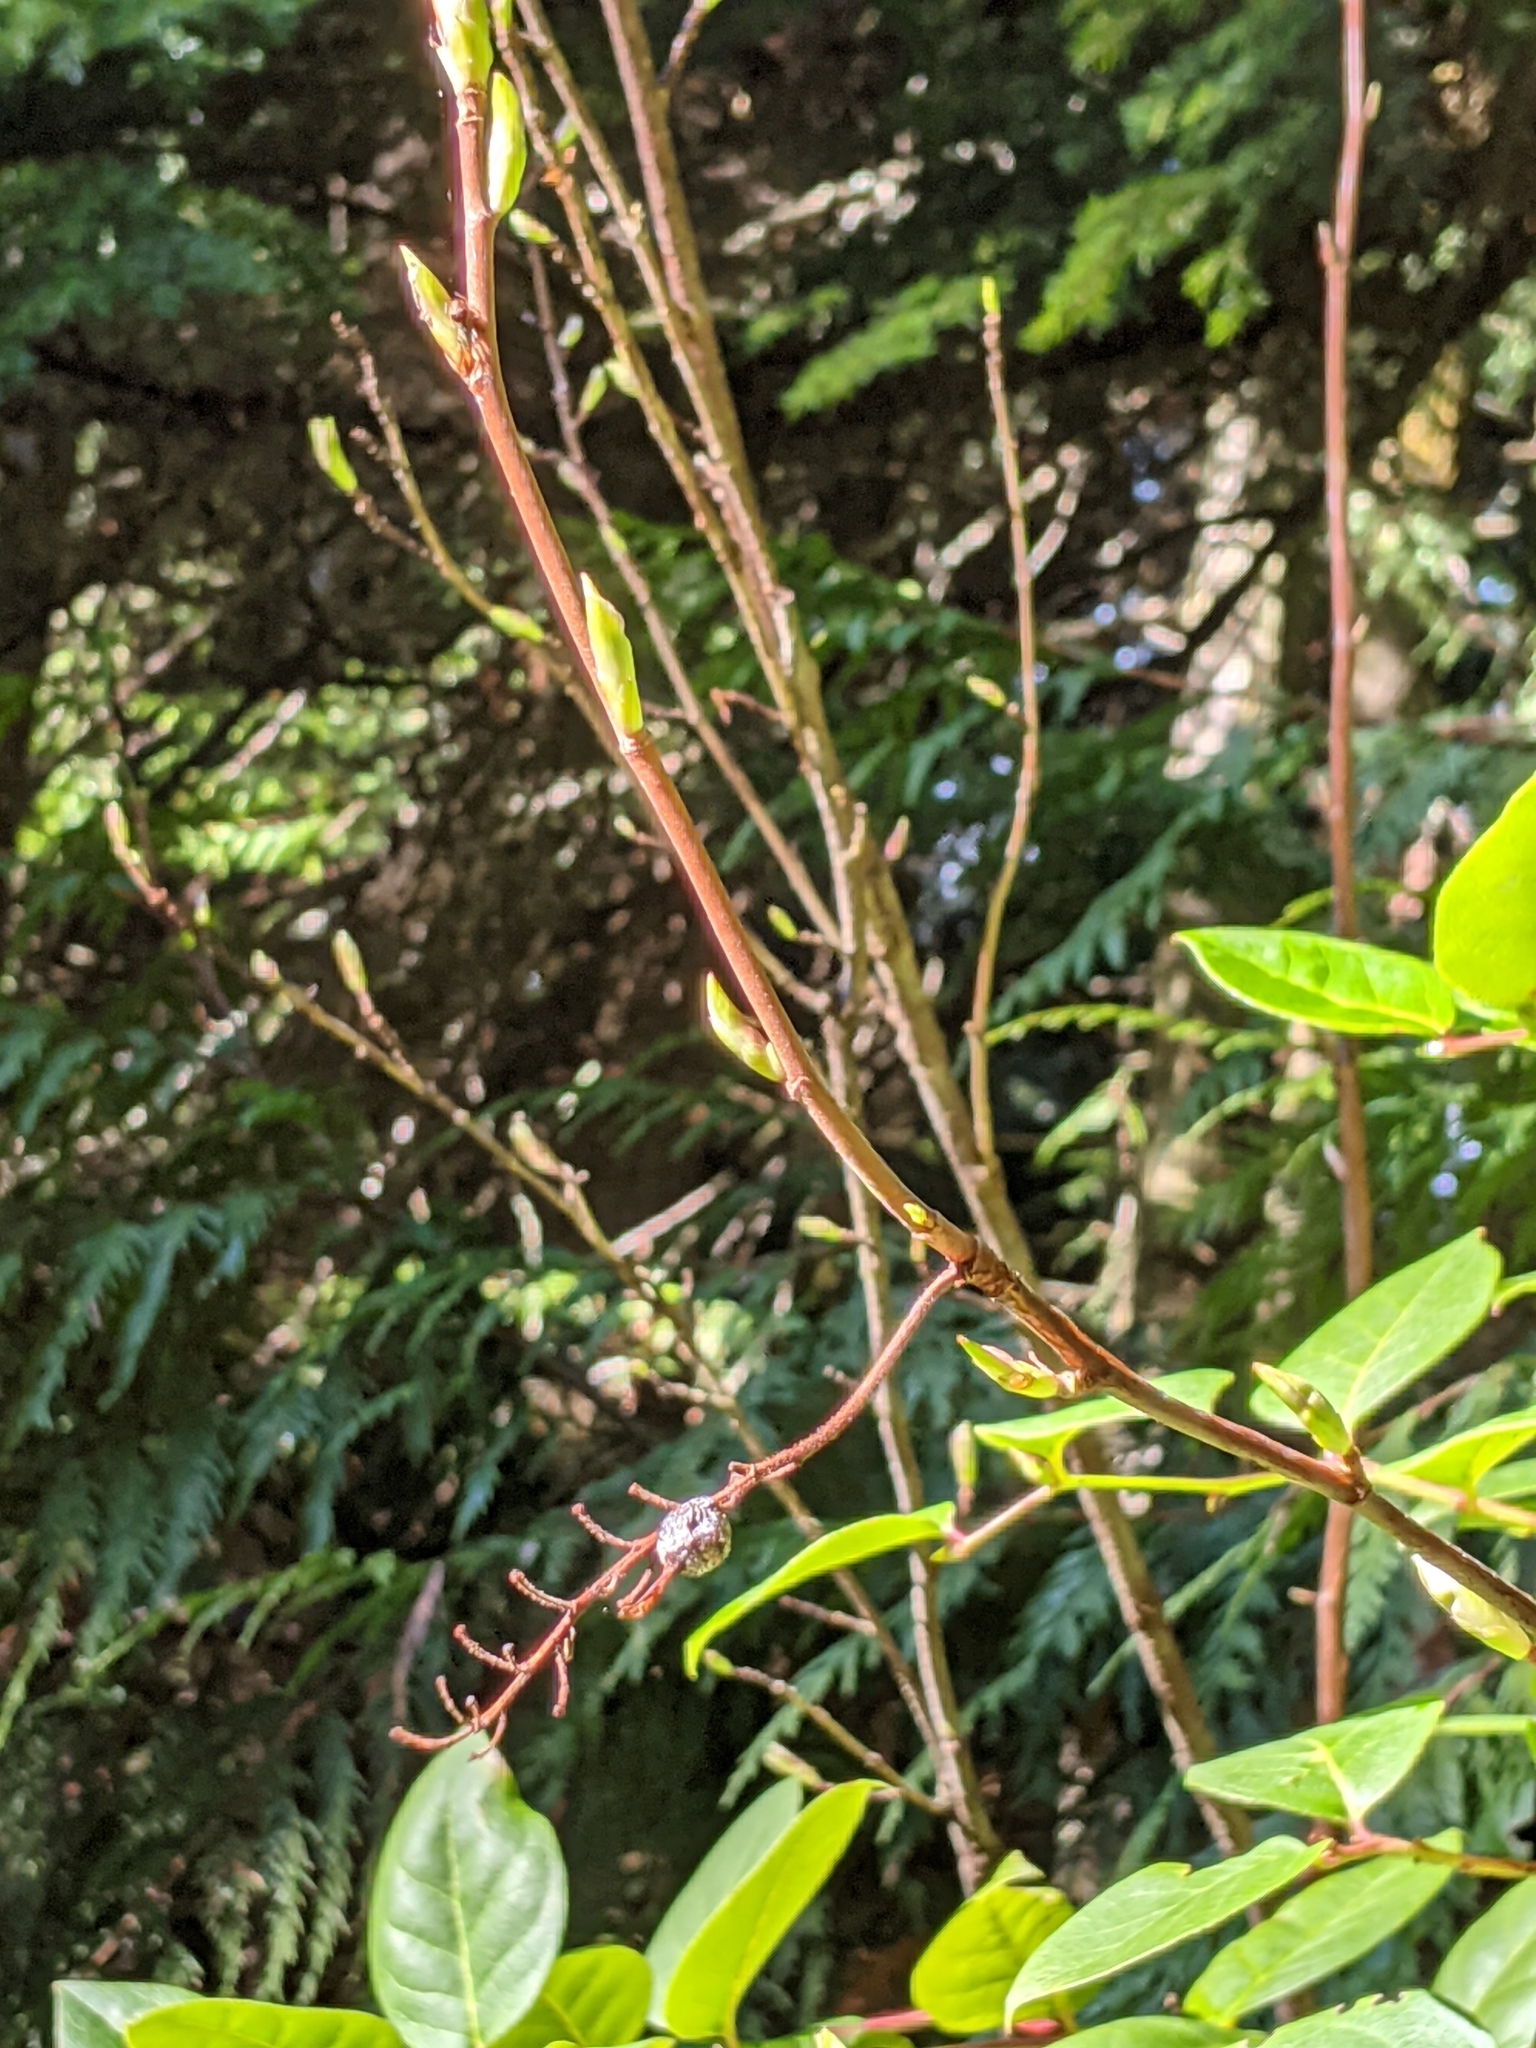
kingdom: Plantae
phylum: Tracheophyta
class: Magnoliopsida
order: Saxifragales
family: Grossulariaceae
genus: Ribes
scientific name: Ribes sanguineum
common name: Flowering currant
